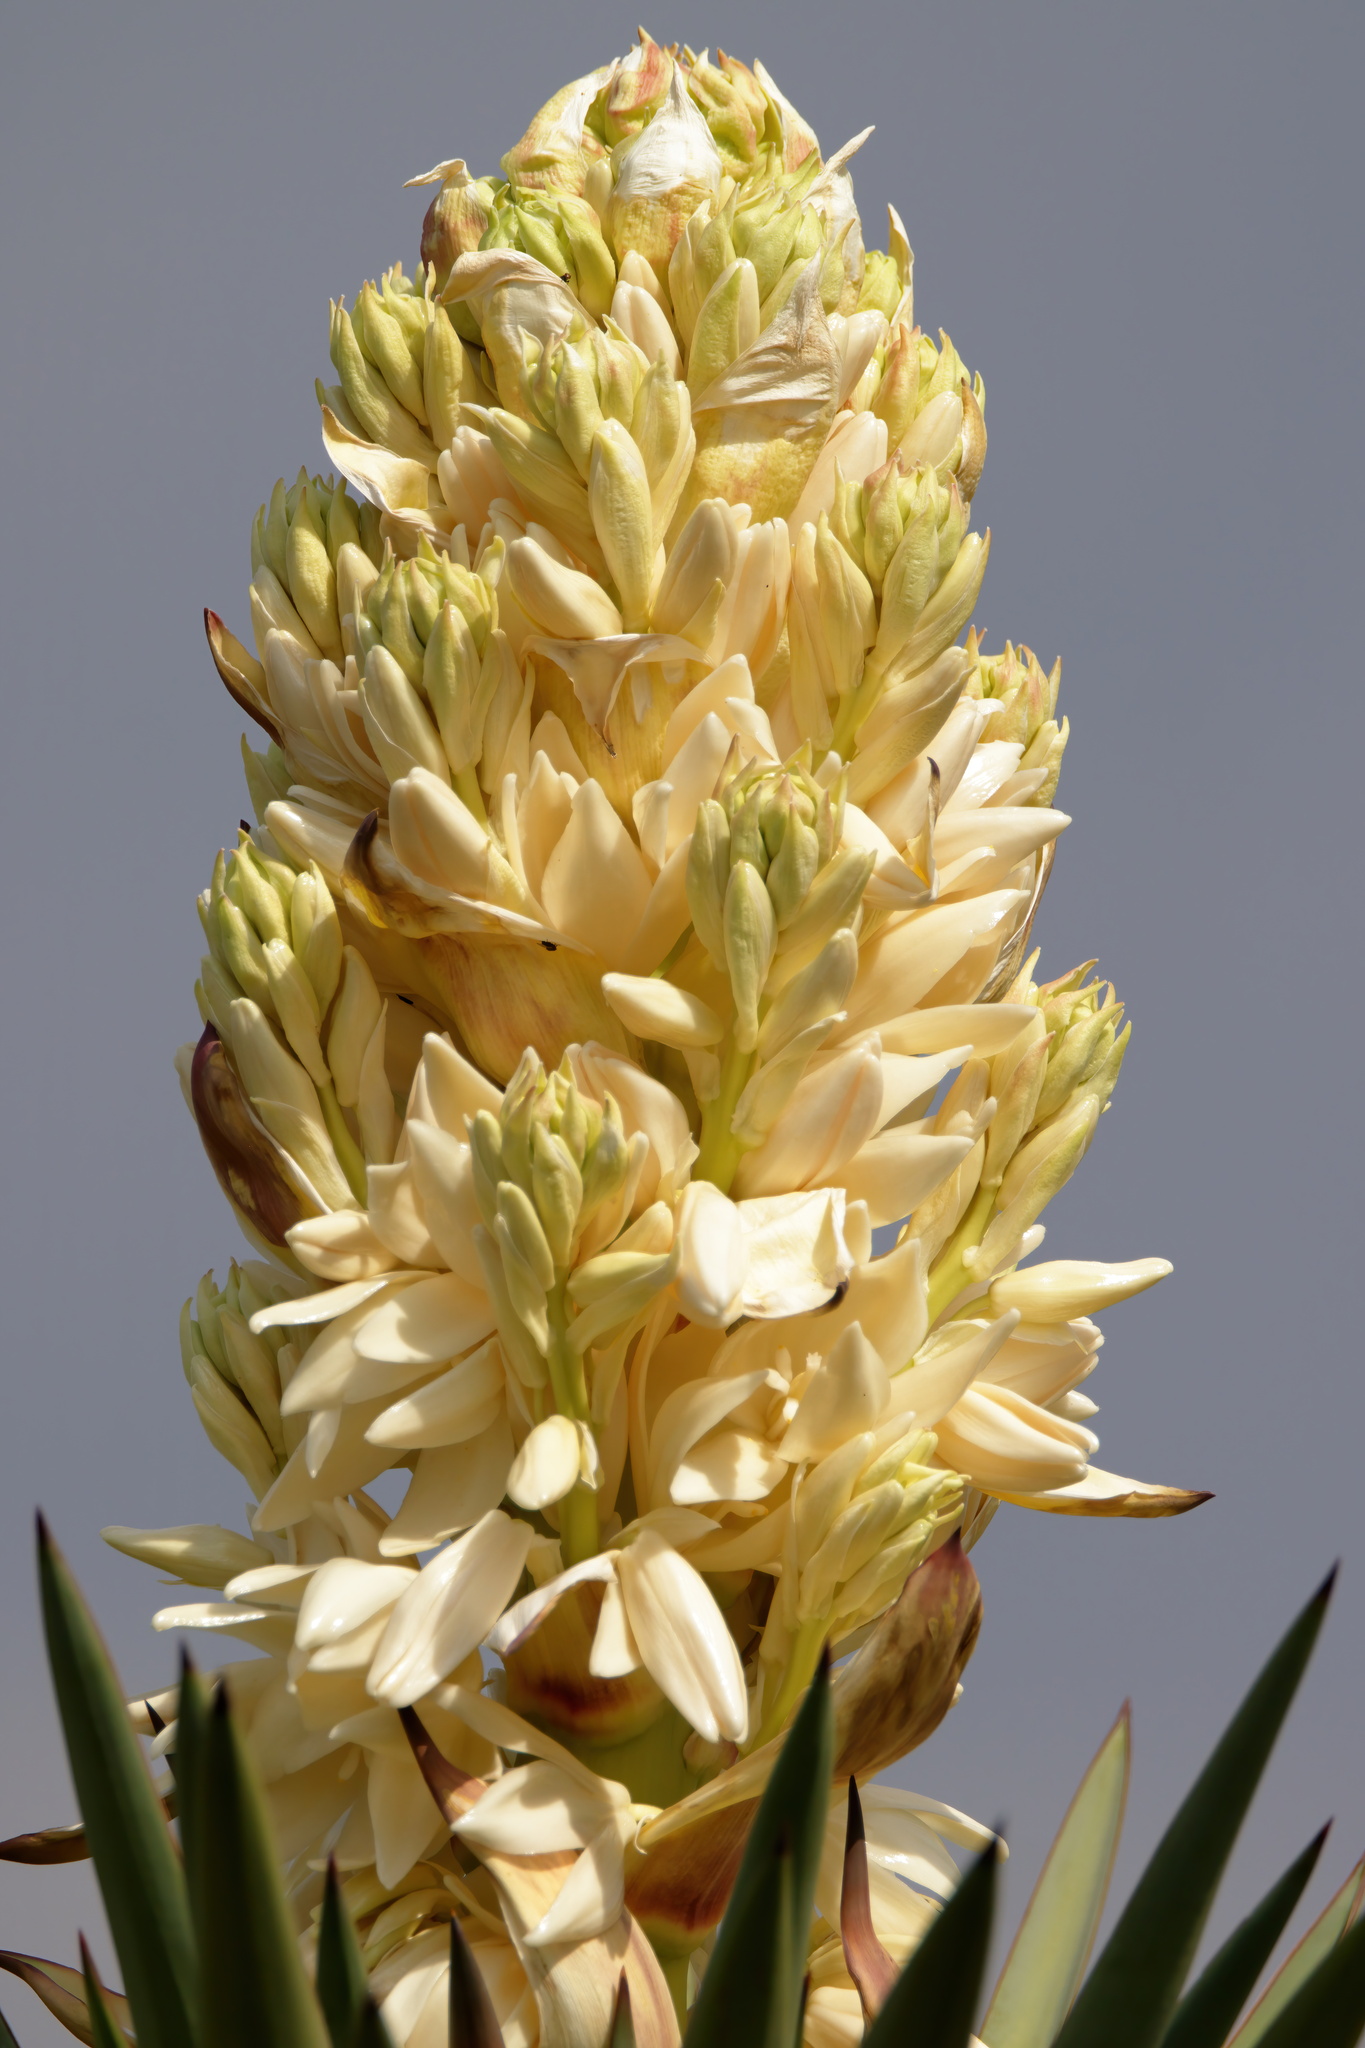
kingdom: Plantae
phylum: Tracheophyta
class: Liliopsida
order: Asparagales
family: Asparagaceae
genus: Yucca
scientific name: Yucca treculiana
